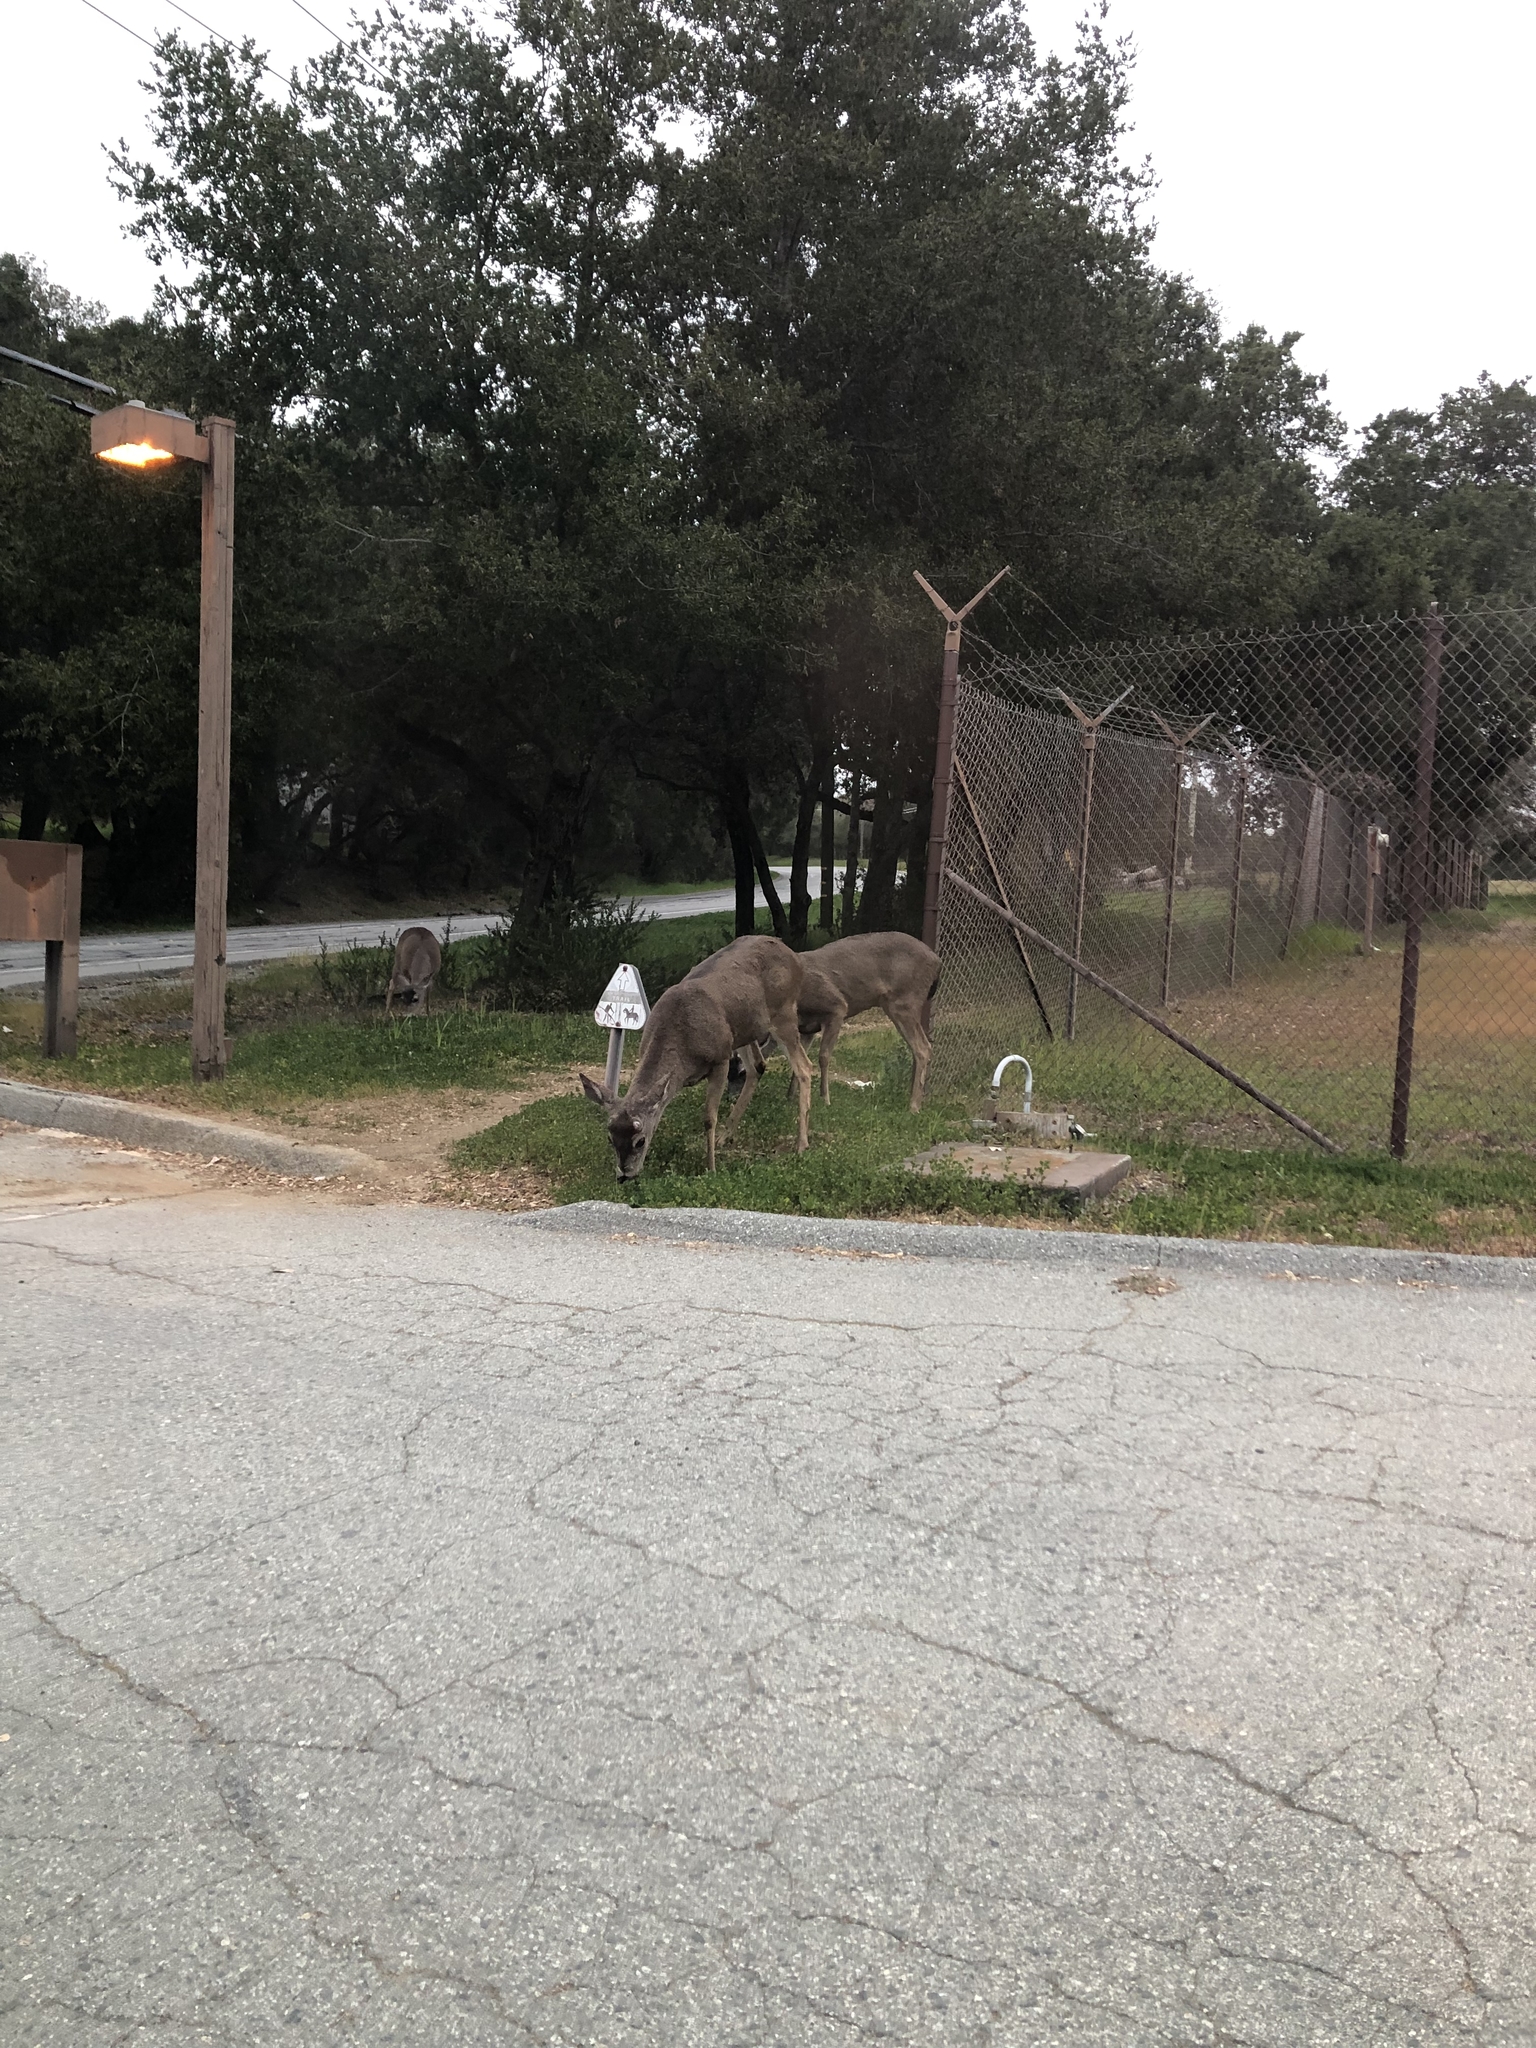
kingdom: Animalia
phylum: Chordata
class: Mammalia
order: Artiodactyla
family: Cervidae
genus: Odocoileus
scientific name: Odocoileus hemionus
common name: Mule deer
